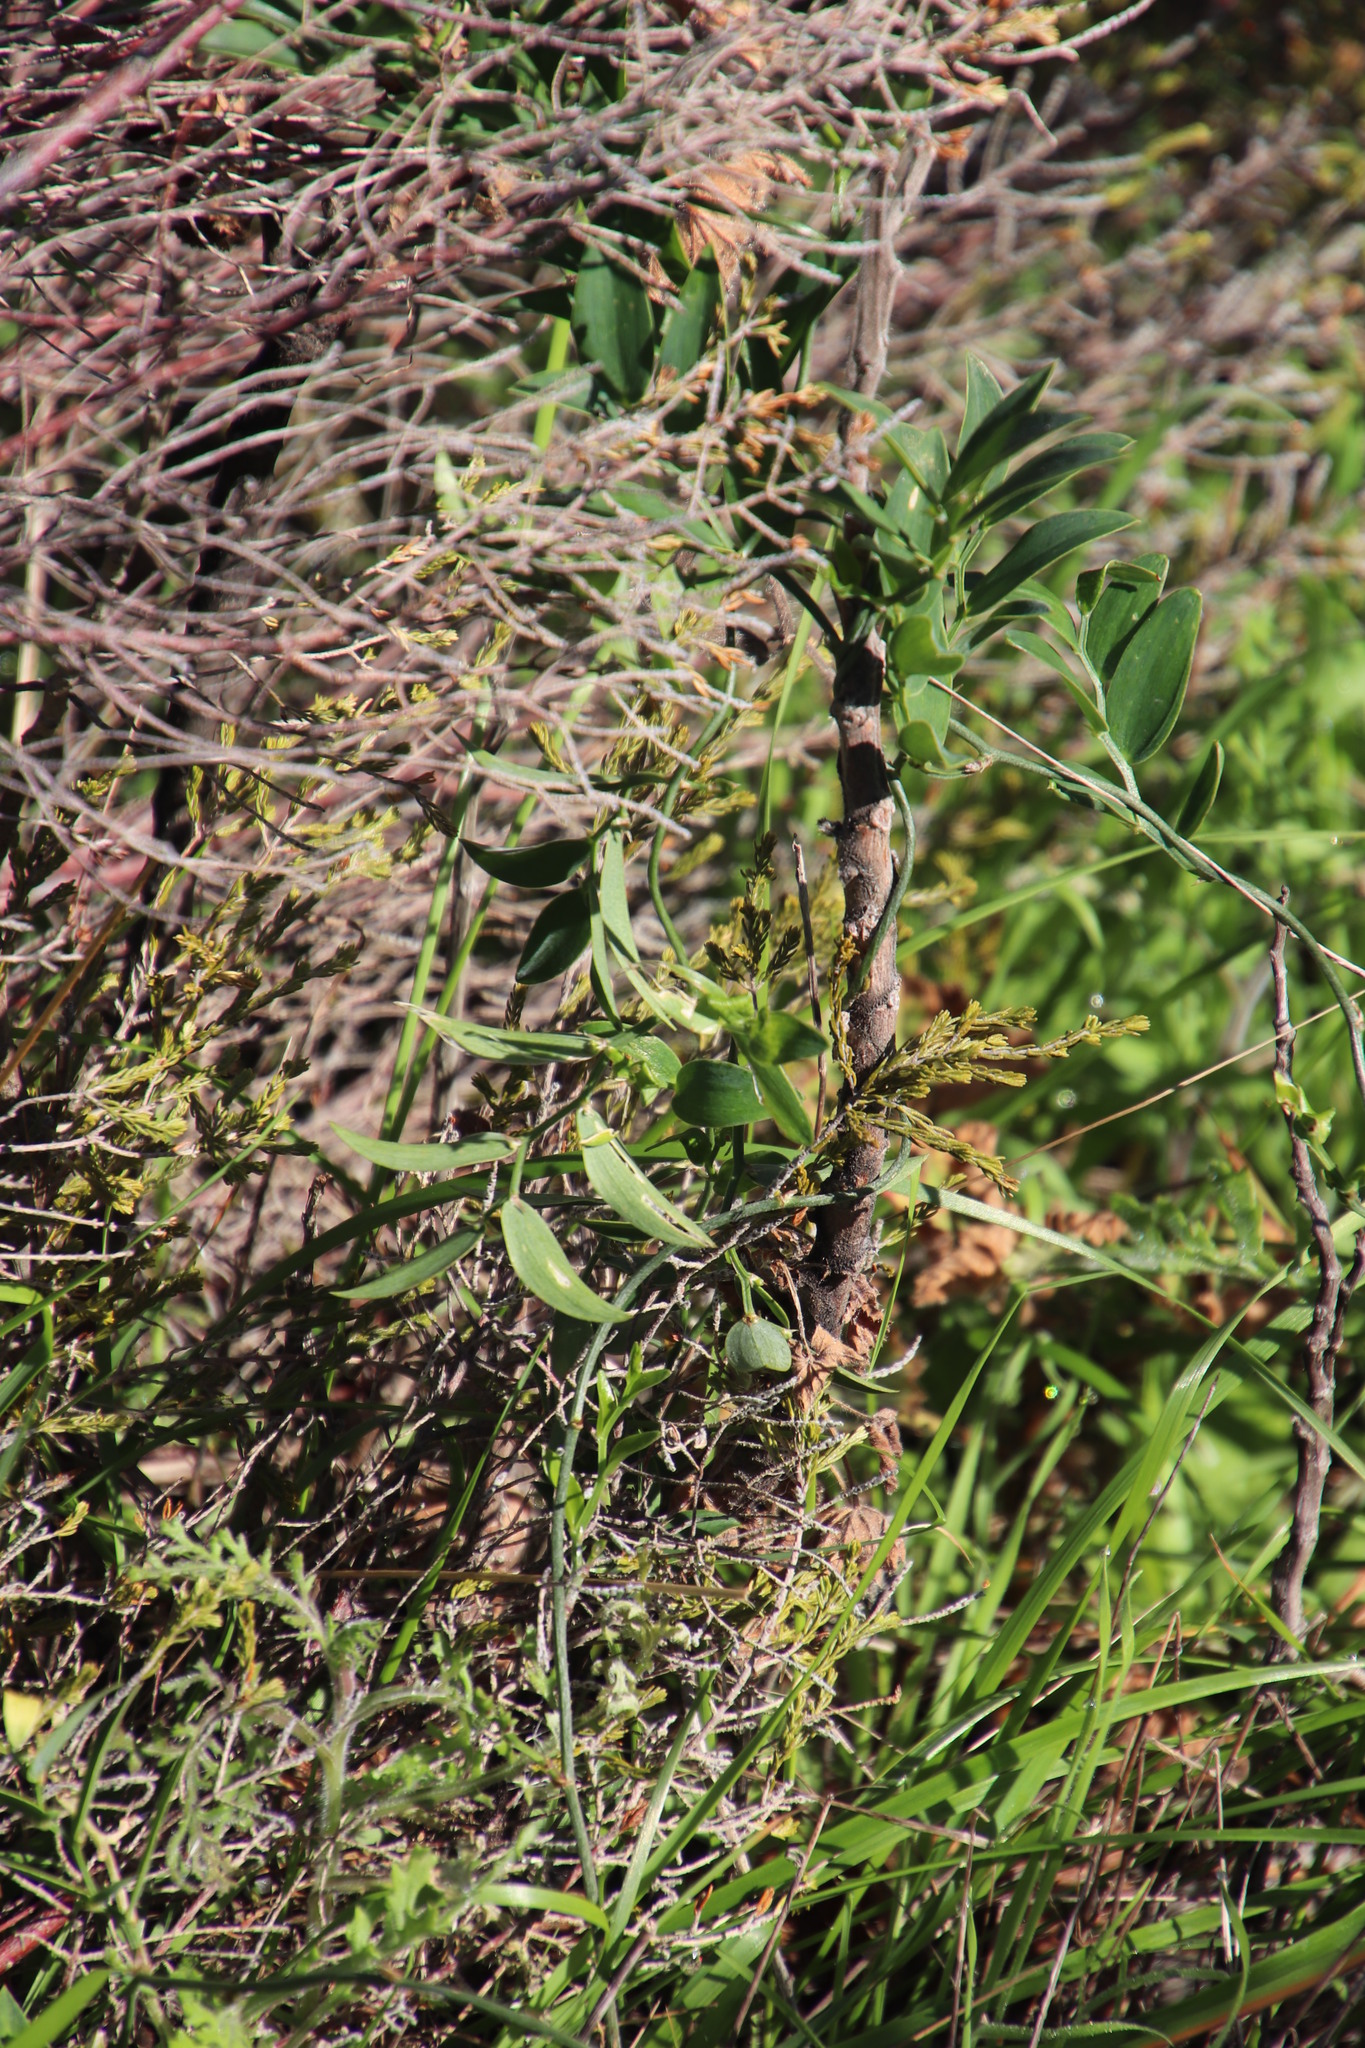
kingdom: Plantae
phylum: Tracheophyta
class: Liliopsida
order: Asparagales
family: Asparagaceae
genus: Asparagus
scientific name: Asparagus asparagoides
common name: African asparagus fern
